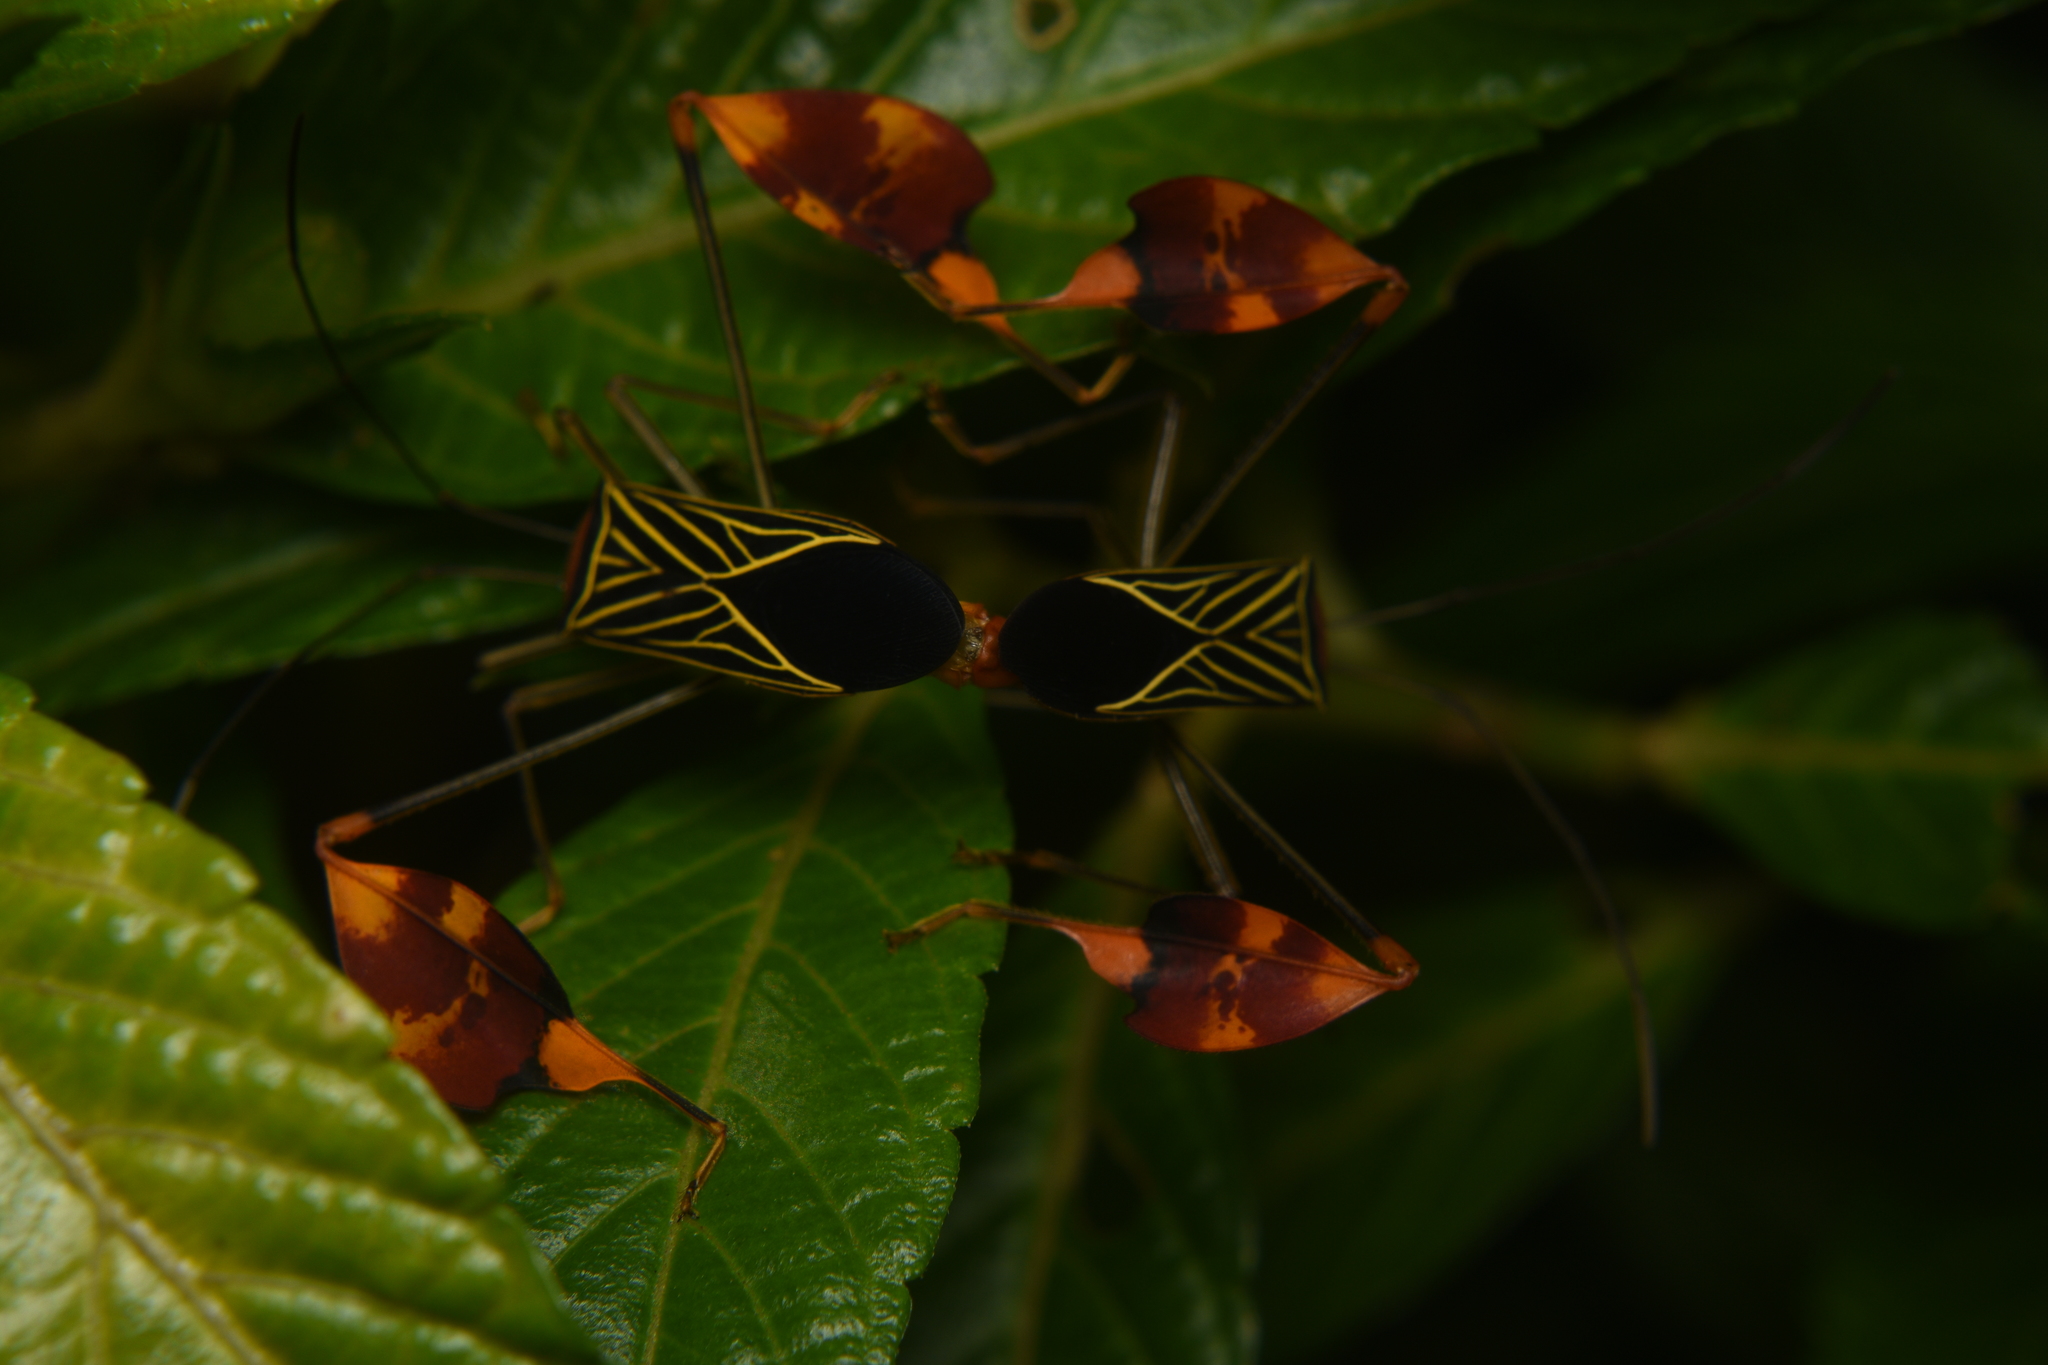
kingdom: Animalia
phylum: Arthropoda
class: Insecta
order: Hemiptera
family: Coreidae
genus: Bitta
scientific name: Bitta
